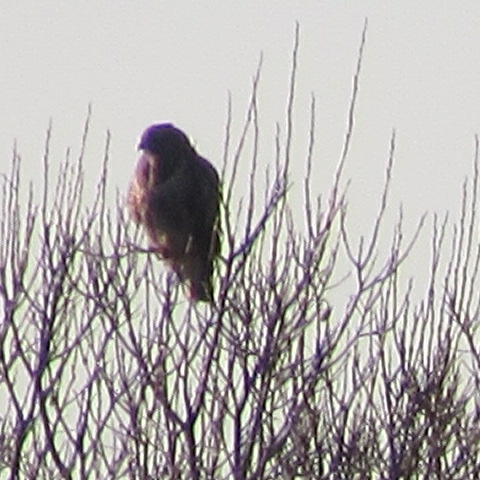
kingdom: Animalia
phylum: Chordata
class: Aves
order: Accipitriformes
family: Accipitridae
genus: Buteo
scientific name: Buteo buteo
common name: Common buzzard
